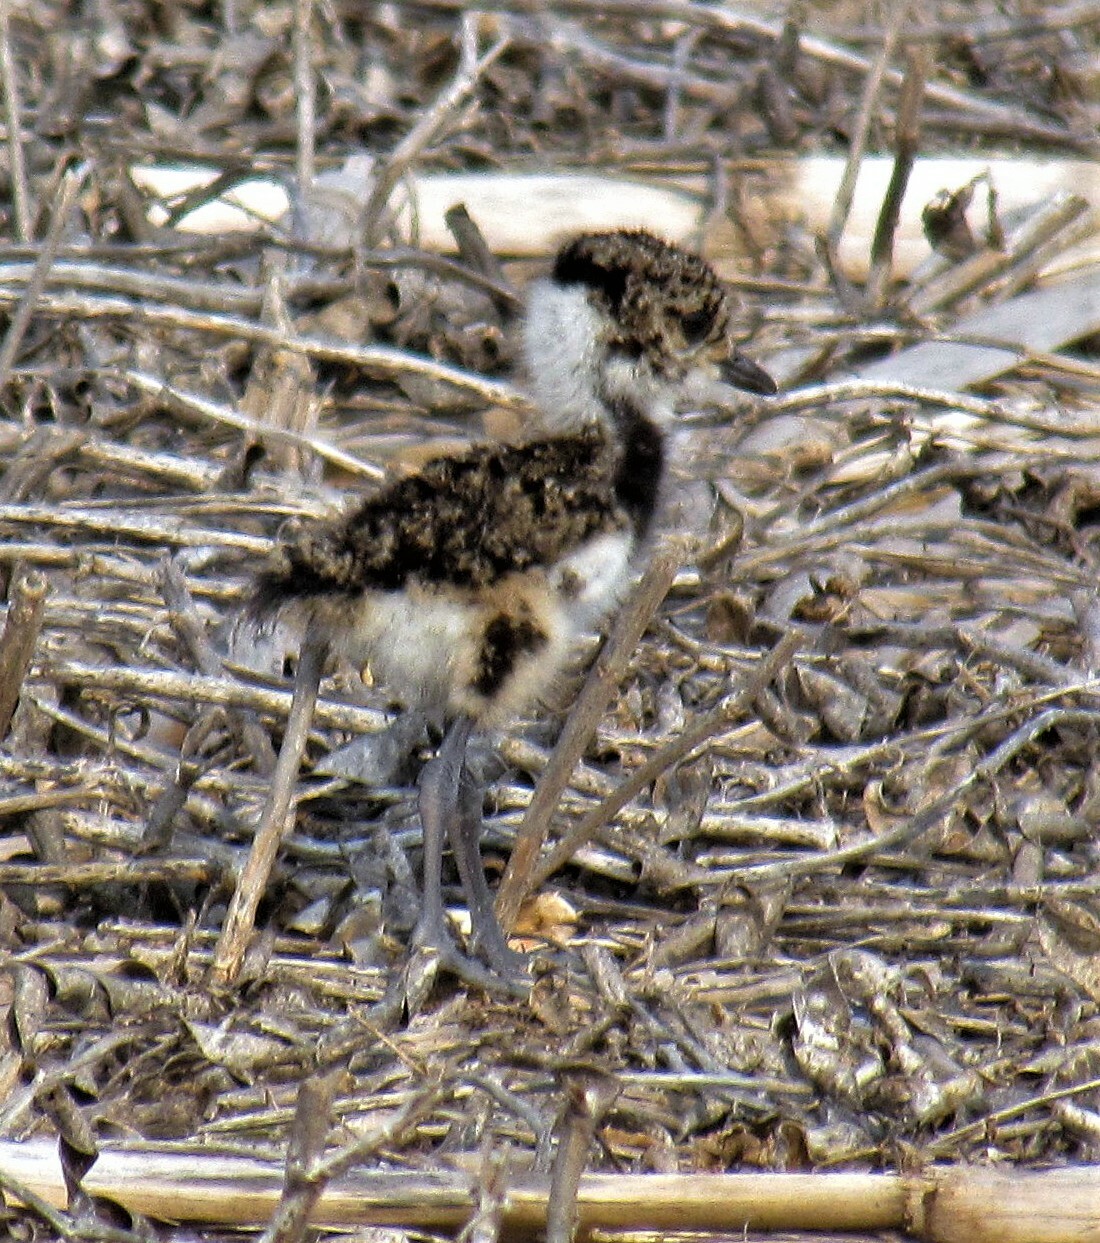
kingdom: Animalia
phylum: Chordata
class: Aves
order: Charadriiformes
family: Charadriidae
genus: Vanellus
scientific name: Vanellus chilensis
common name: Southern lapwing
